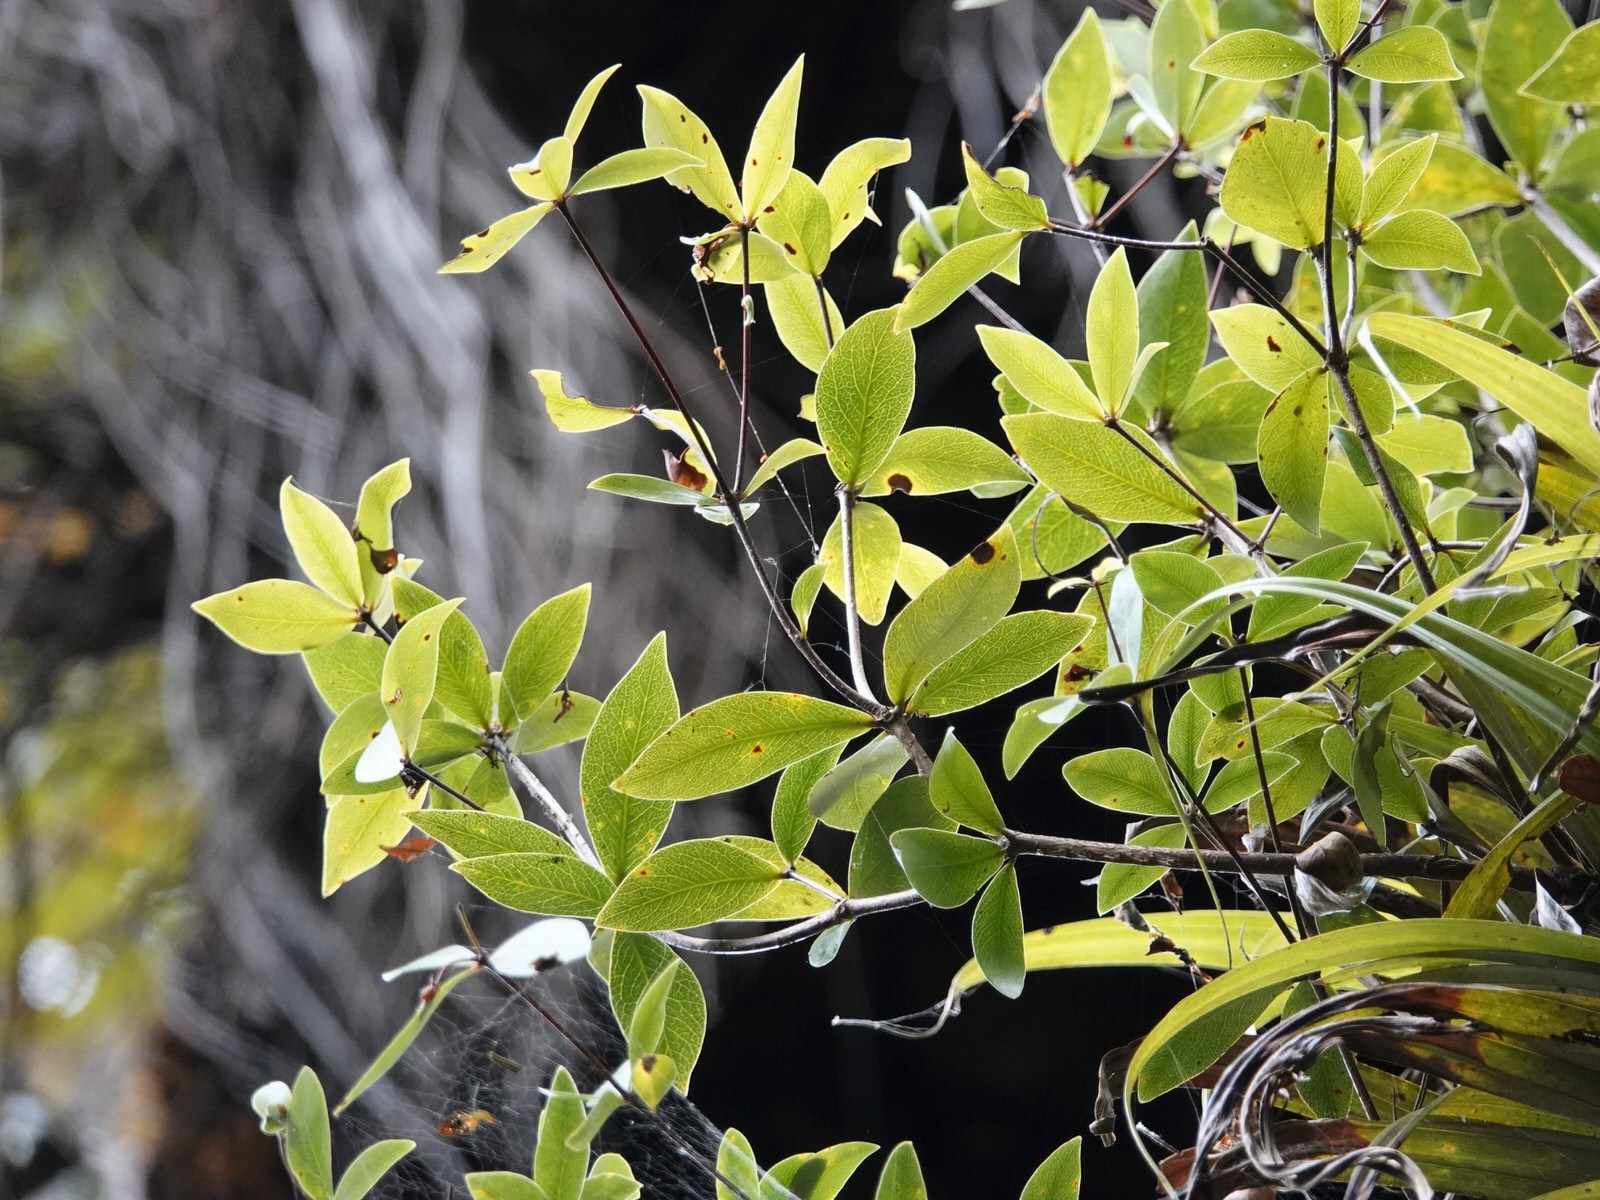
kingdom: Plantae
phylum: Tracheophyta
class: Magnoliopsida
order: Apiales
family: Pittosporaceae
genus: Pittosporum
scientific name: Pittosporum cornifolium
